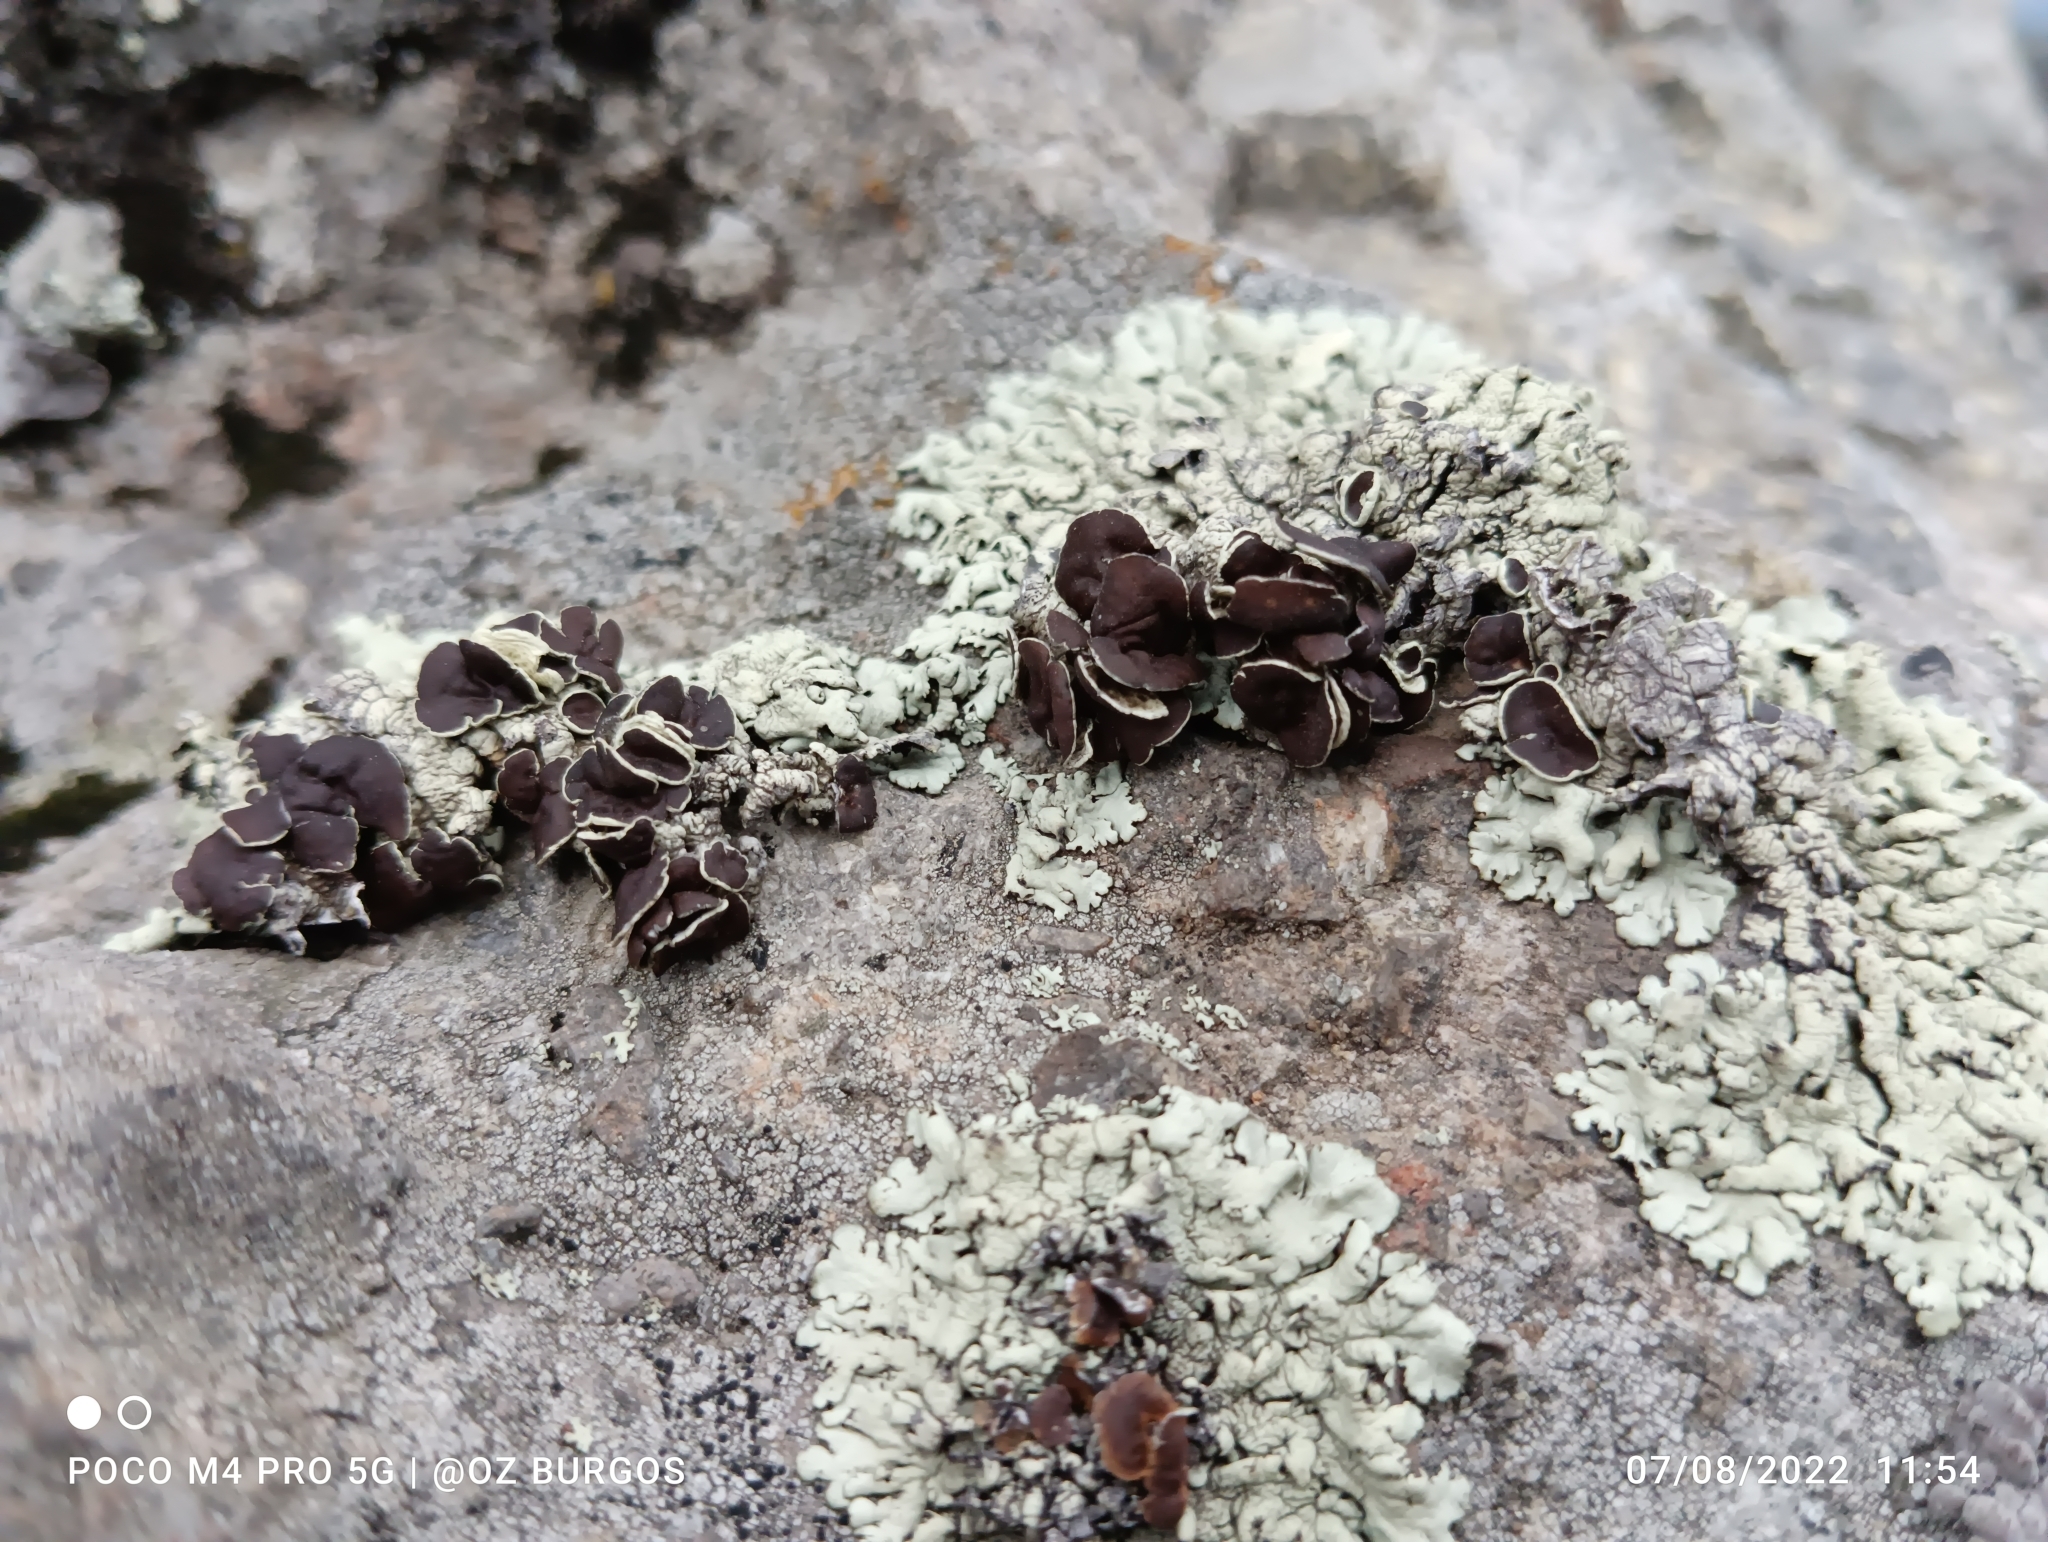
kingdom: Fungi
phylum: Ascomycota
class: Lecanoromycetes
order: Lecanorales
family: Parmeliaceae
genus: Xanthoparmelia
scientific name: Xanthoparmelia cumberlandia
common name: Cumberland rock shield
